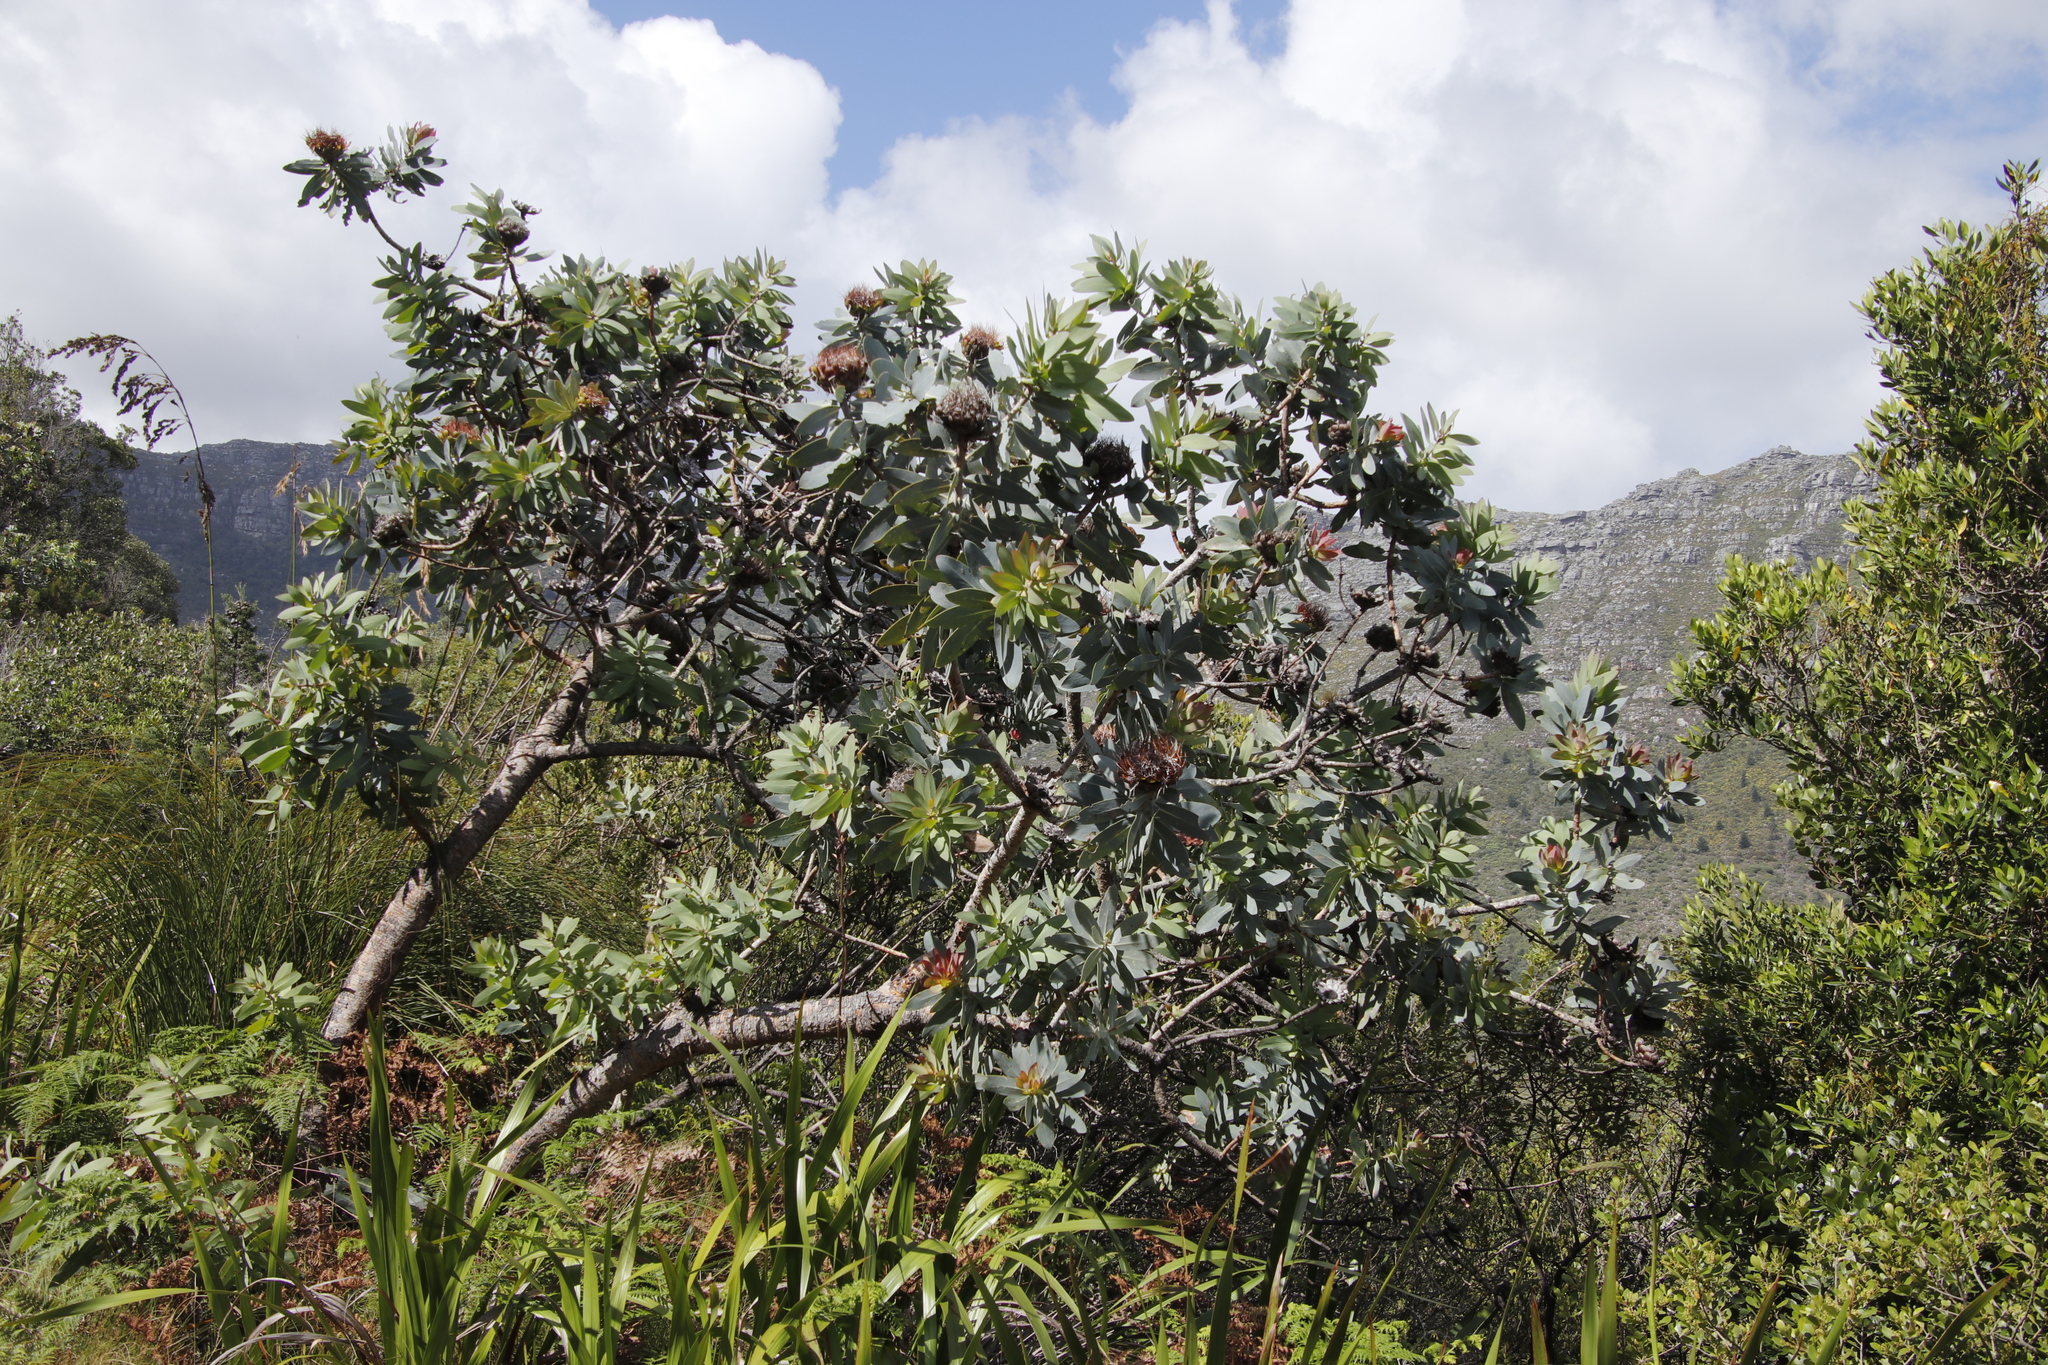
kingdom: Plantae
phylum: Tracheophyta
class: Magnoliopsida
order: Proteales
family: Proteaceae
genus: Protea
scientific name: Protea nitida
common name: Tree protea
